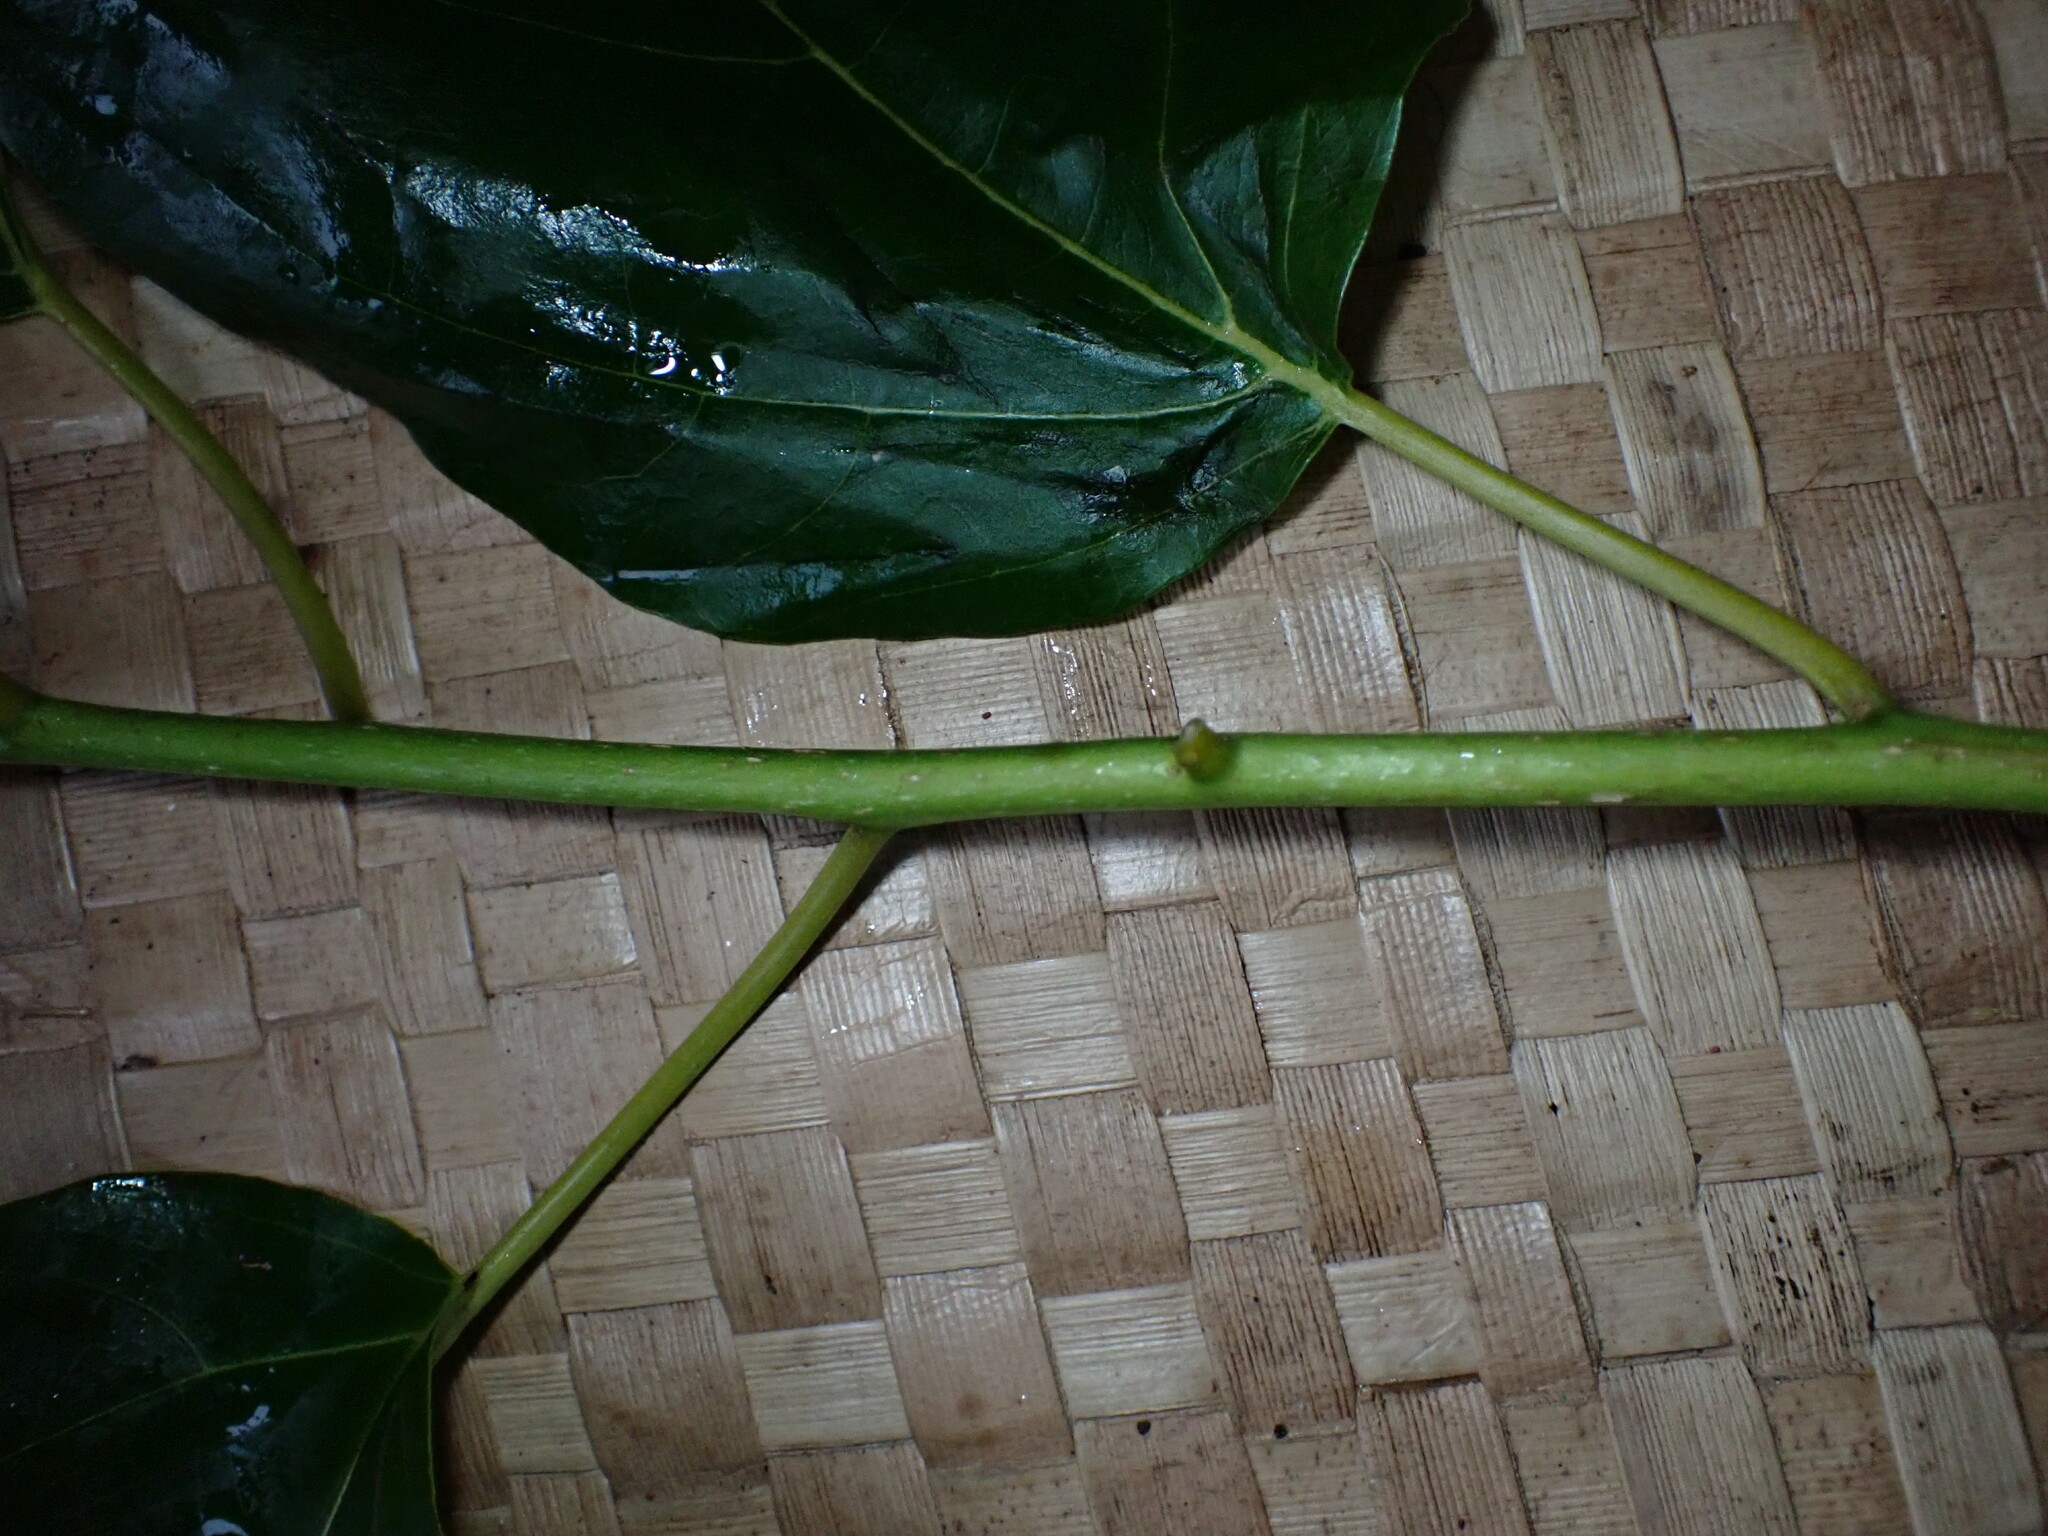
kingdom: Plantae
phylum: Tracheophyta
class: Magnoliopsida
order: Boraginales
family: Cordiaceae
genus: Cordia
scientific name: Cordia subcordata
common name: Mareer
